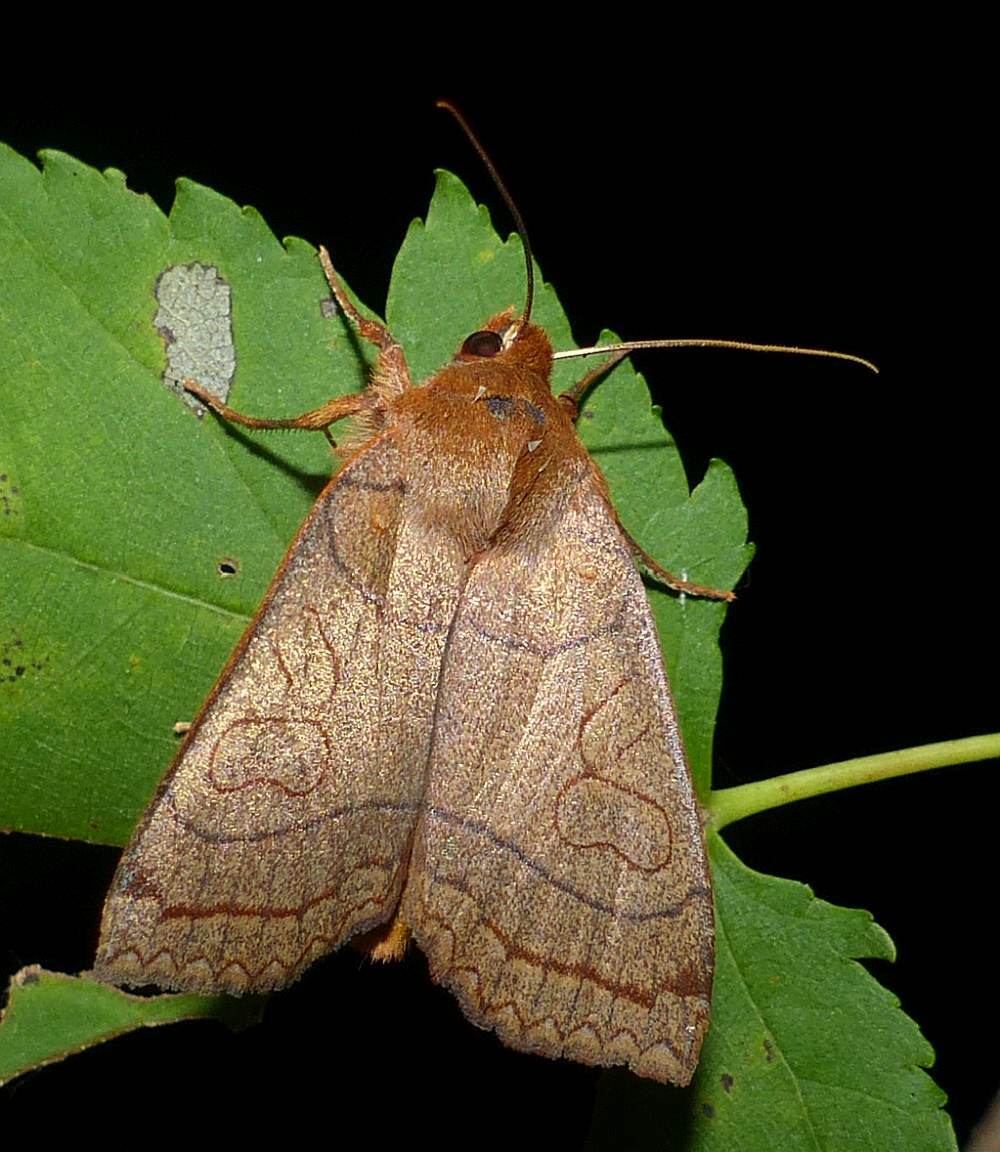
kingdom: Animalia
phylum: Arthropoda
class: Insecta
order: Lepidoptera
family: Noctuidae
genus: Metaxaglaea
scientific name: Metaxaglaea inulta
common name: Unsated sallow
